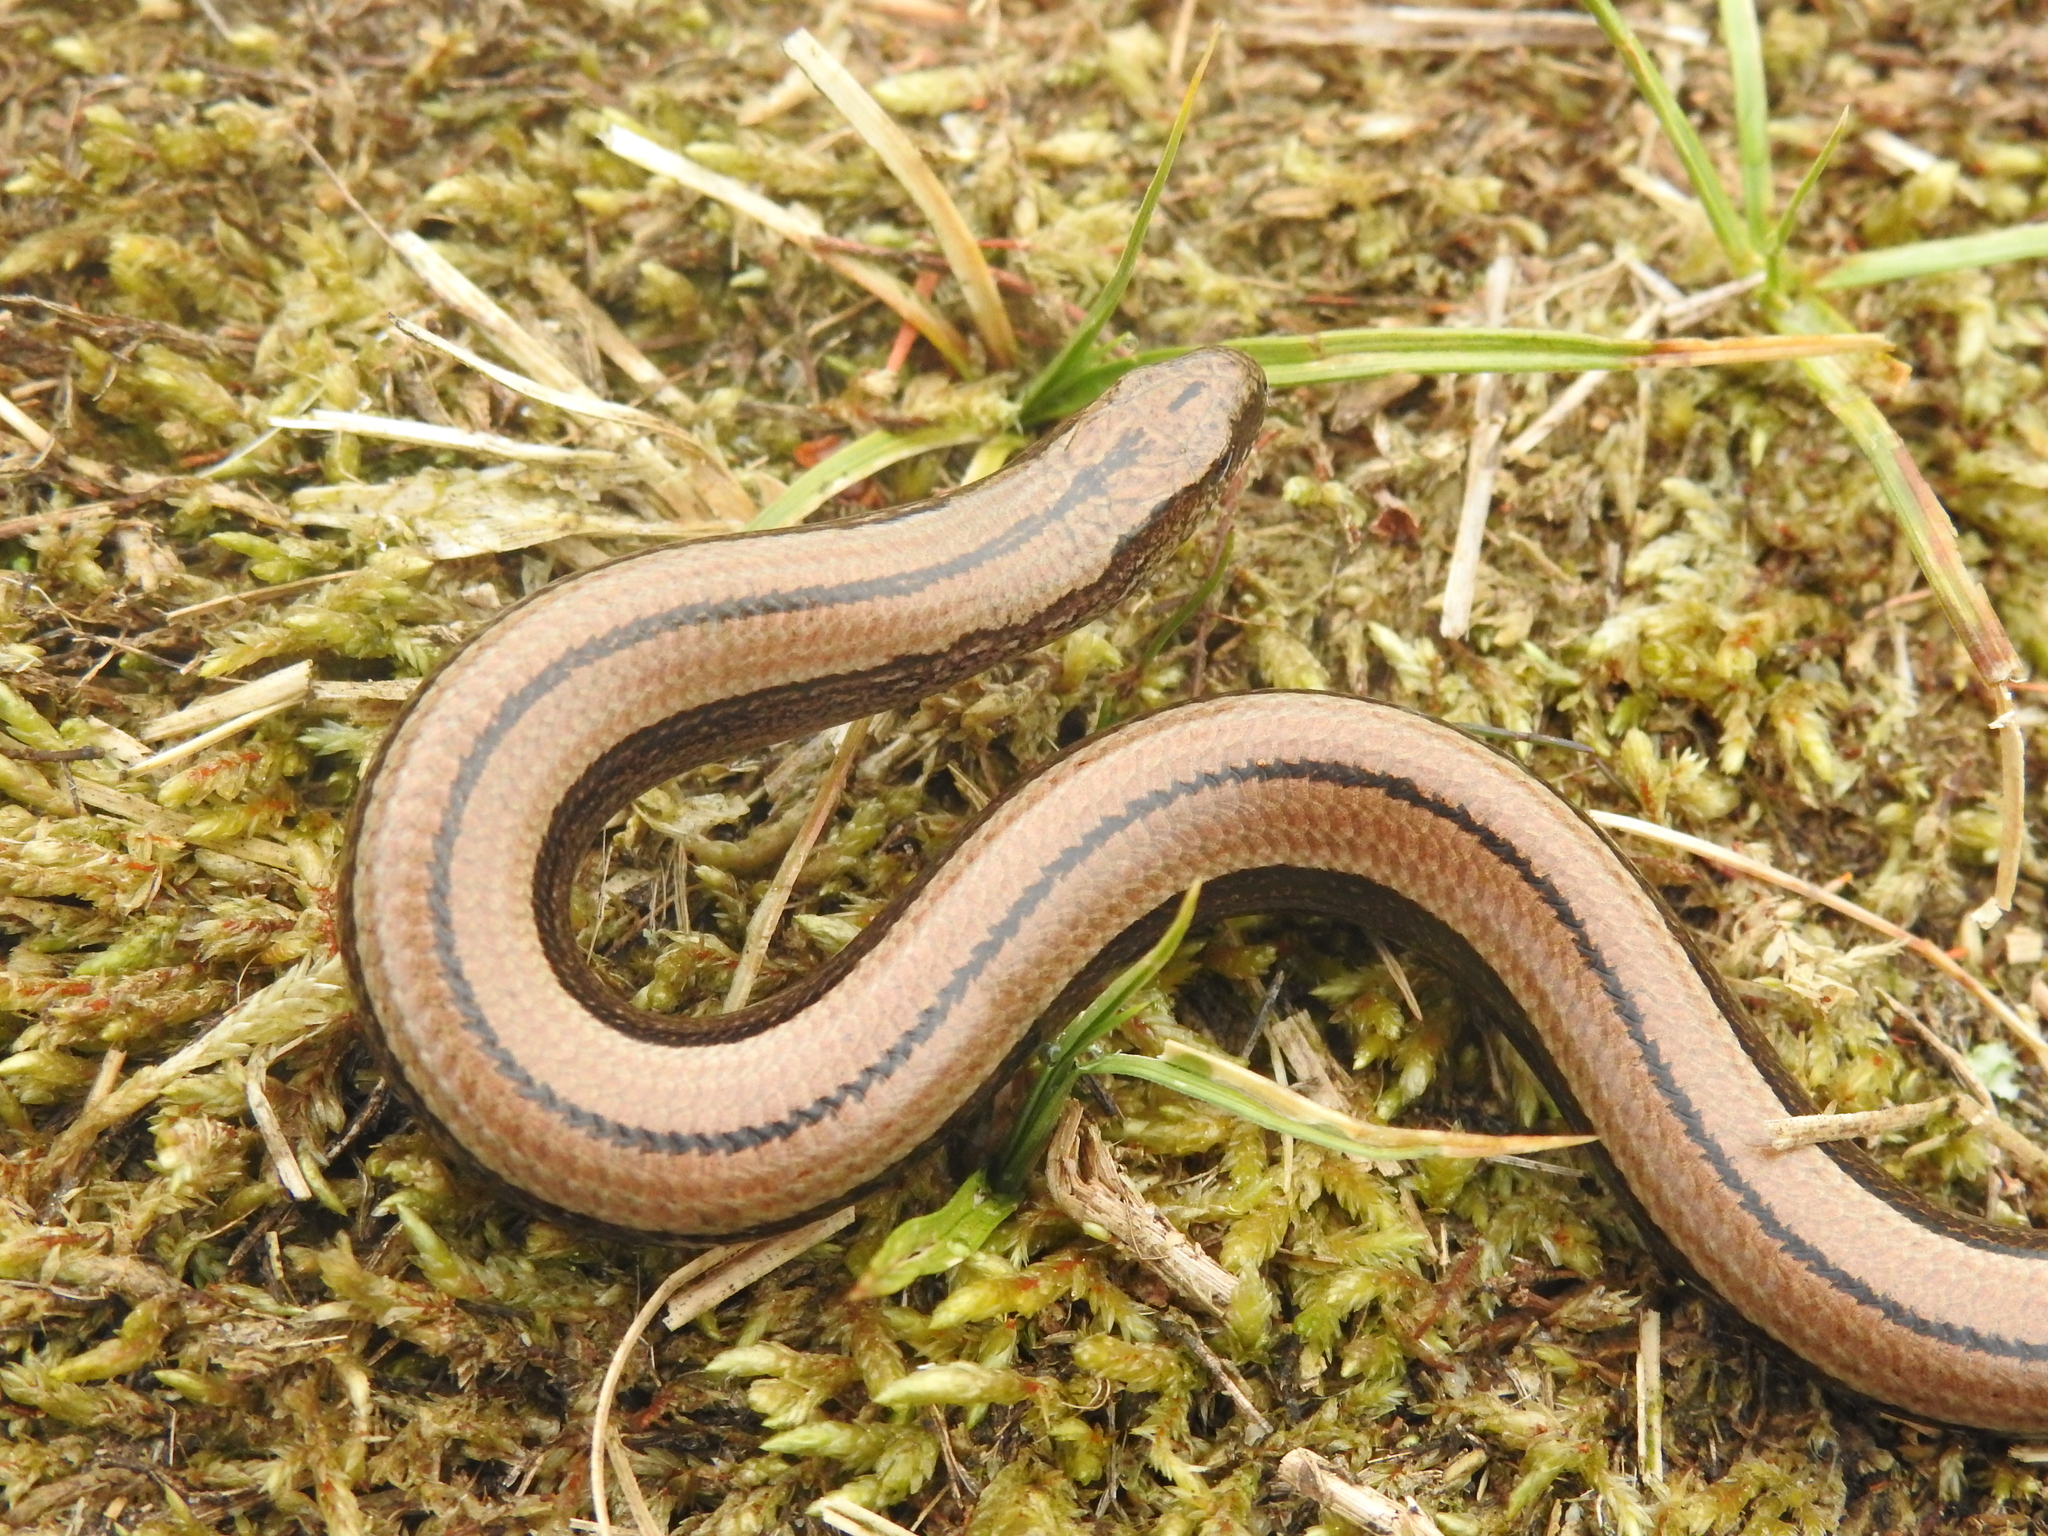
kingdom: Animalia
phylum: Chordata
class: Squamata
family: Anguidae
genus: Anguis
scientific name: Anguis fragilis
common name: Slow worm
